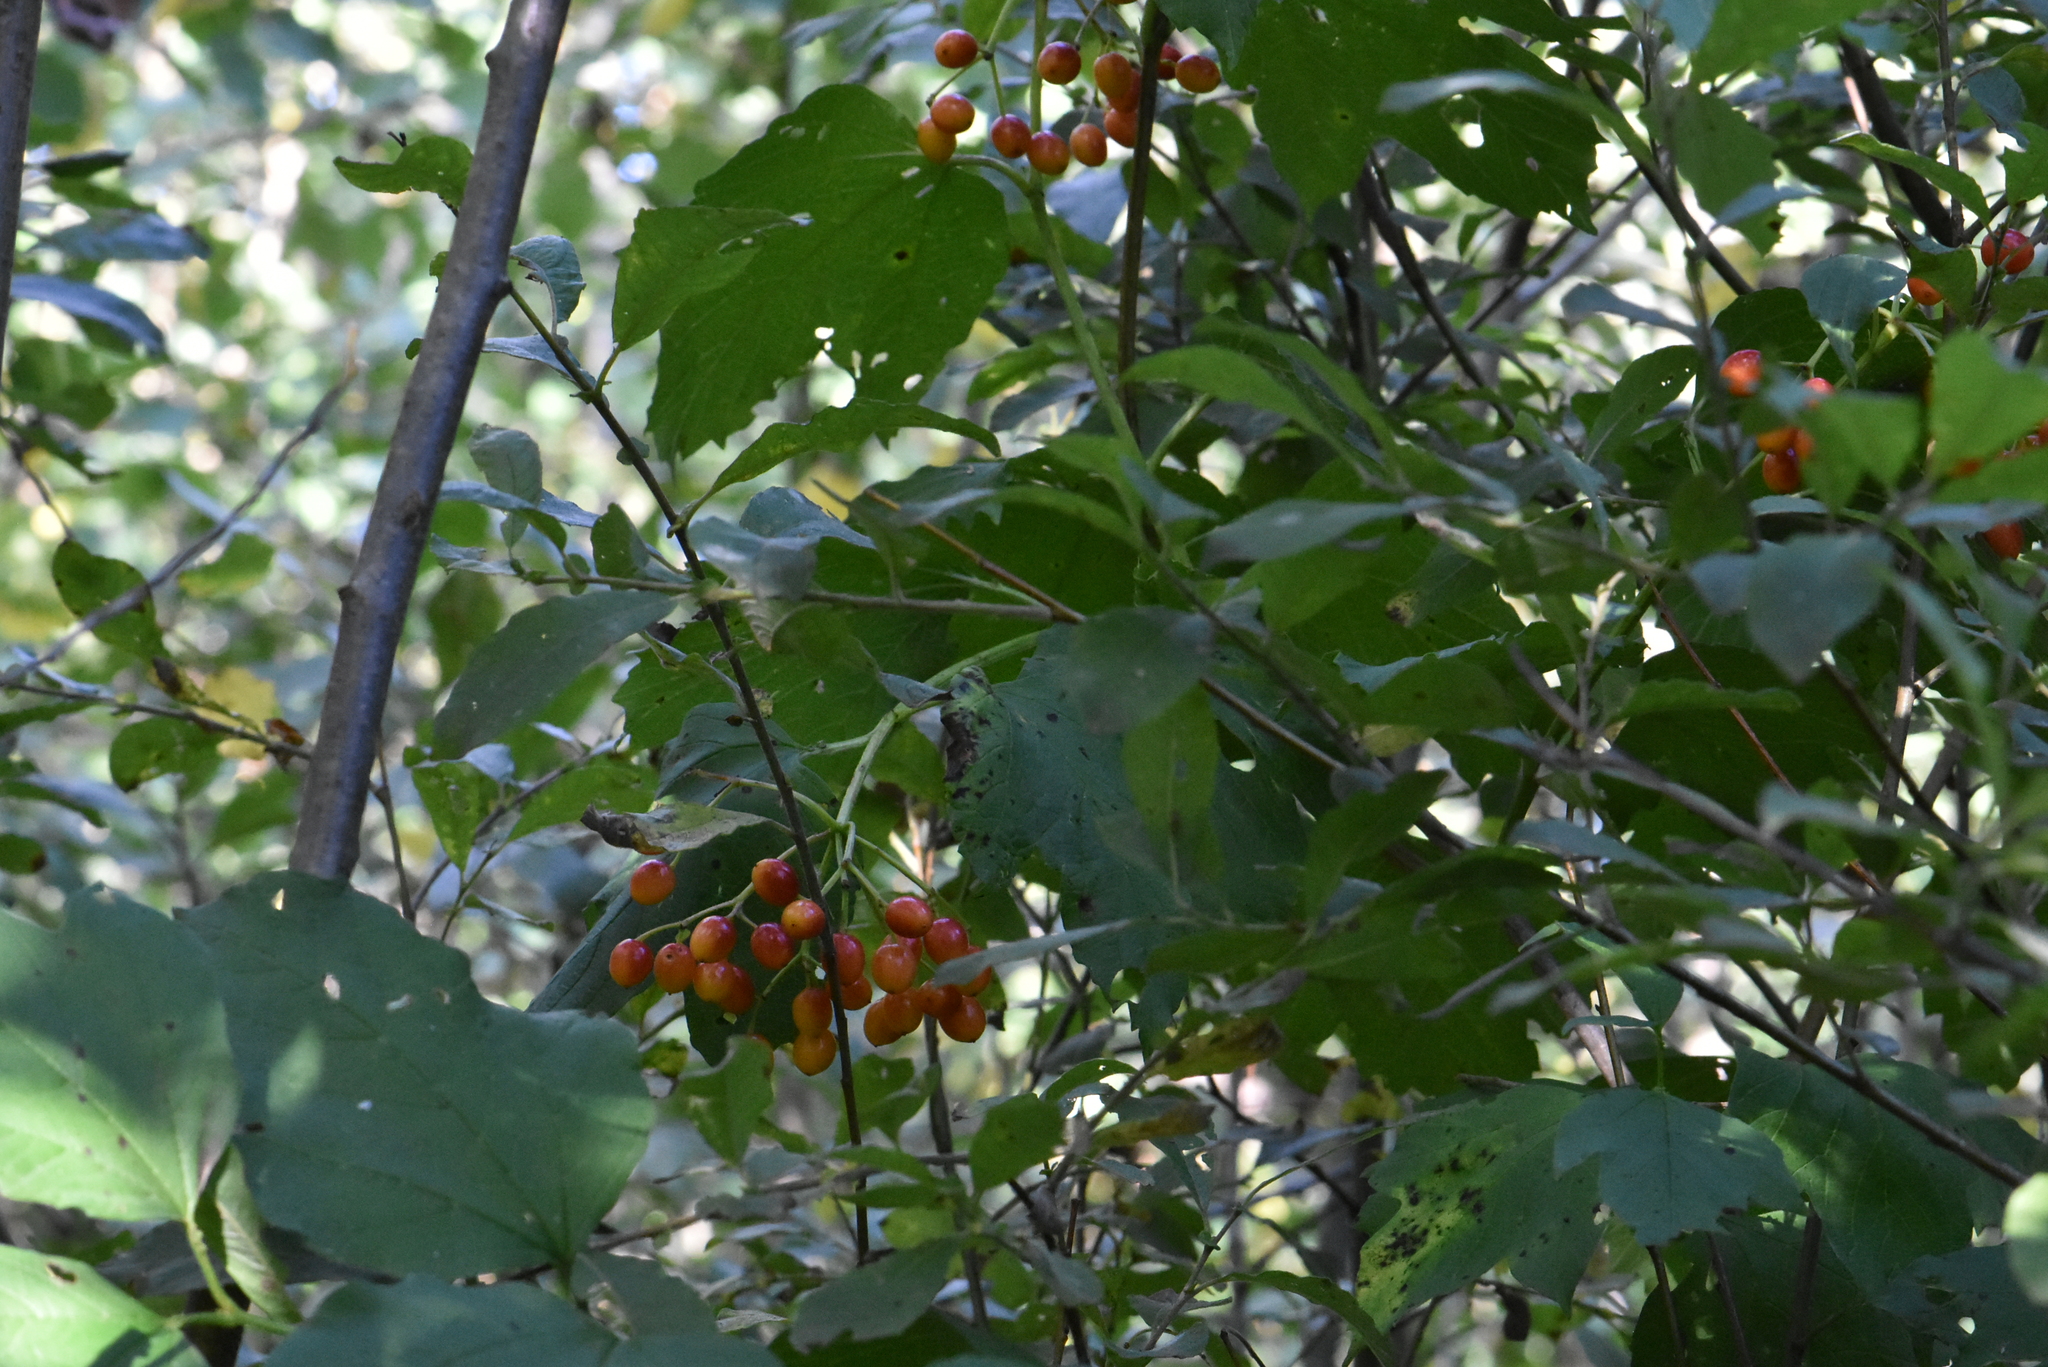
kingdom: Plantae
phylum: Tracheophyta
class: Magnoliopsida
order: Dipsacales
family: Viburnaceae
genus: Viburnum
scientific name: Viburnum opulus
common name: Guelder-rose
